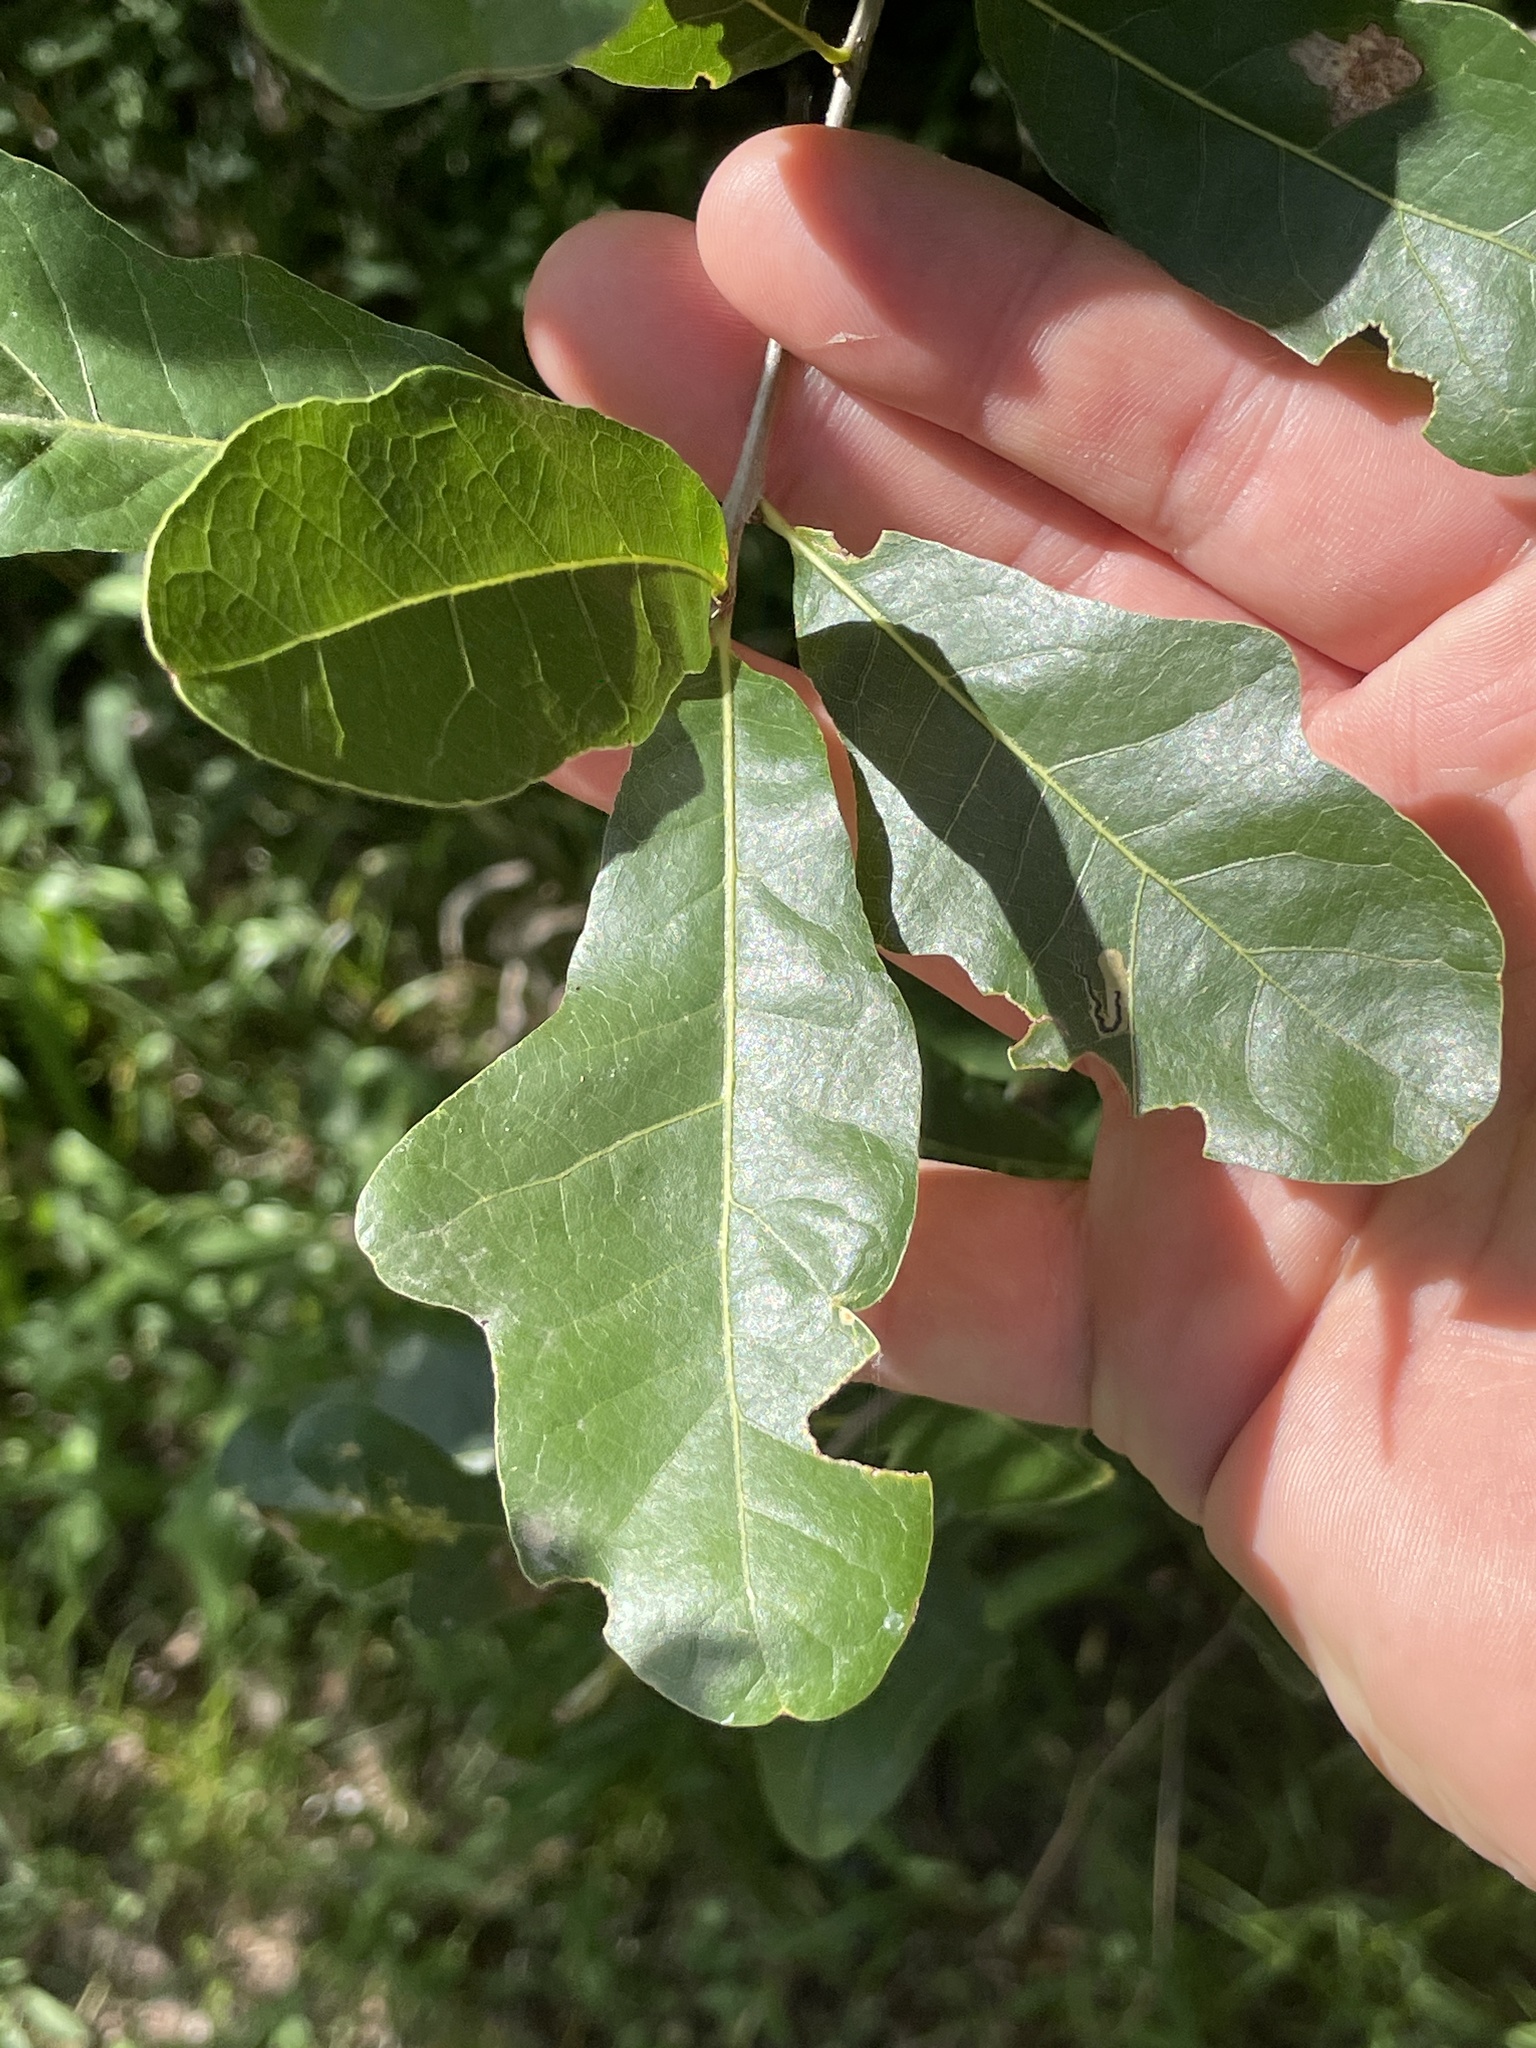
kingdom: Plantae
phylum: Tracheophyta
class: Magnoliopsida
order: Fagales
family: Fagaceae
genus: Quercus
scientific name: Quercus sinuata
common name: Durand oak
